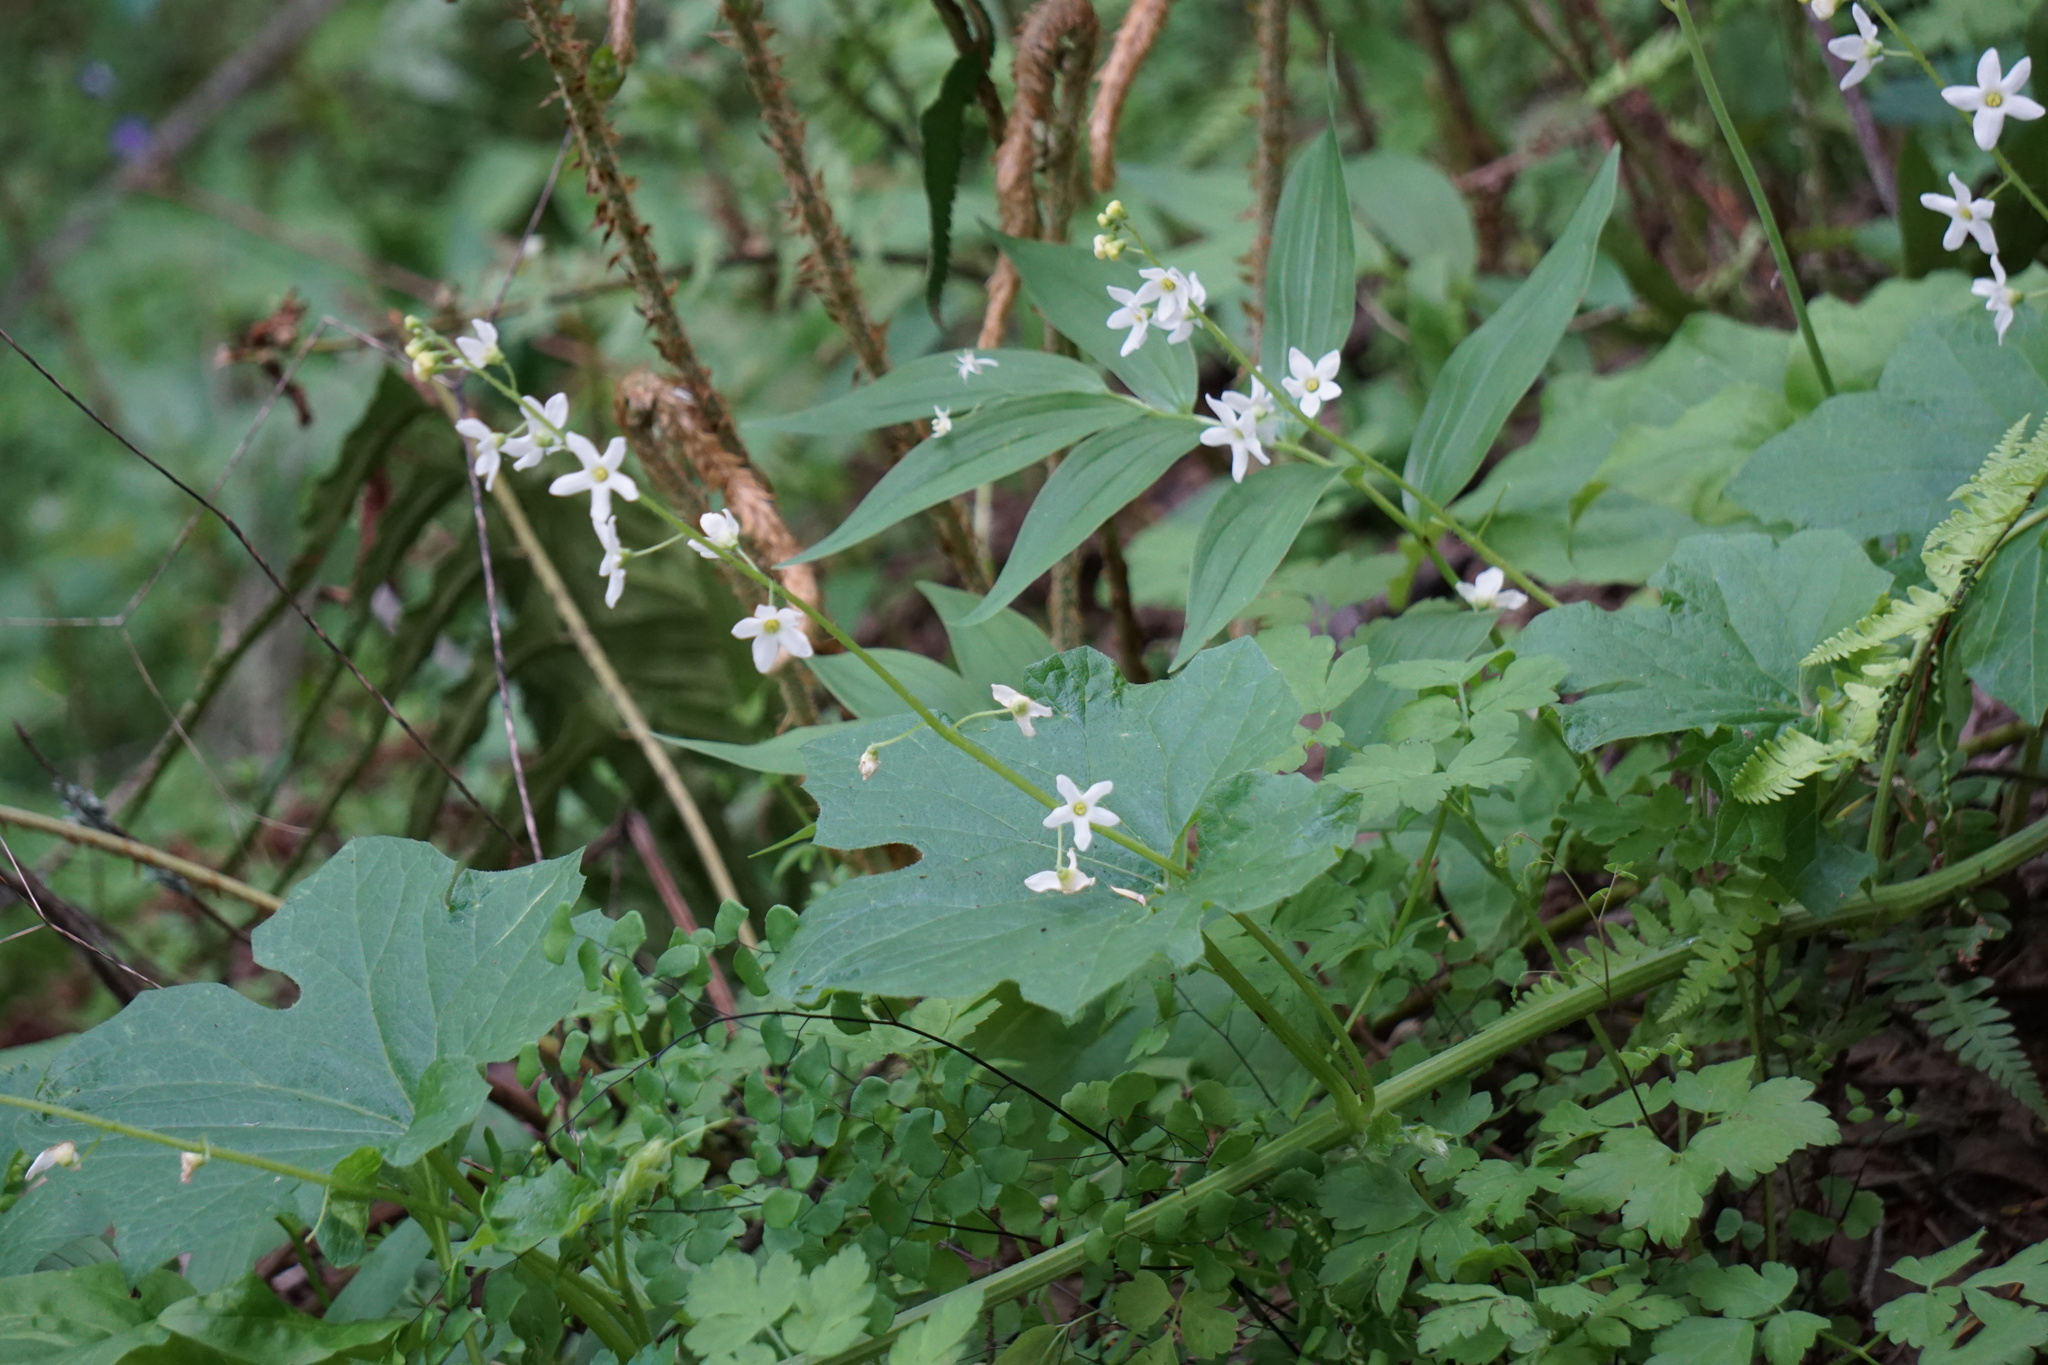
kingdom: Plantae
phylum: Tracheophyta
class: Magnoliopsida
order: Cucurbitales
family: Cucurbitaceae
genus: Marah
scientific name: Marah fabacea
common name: California manroot
